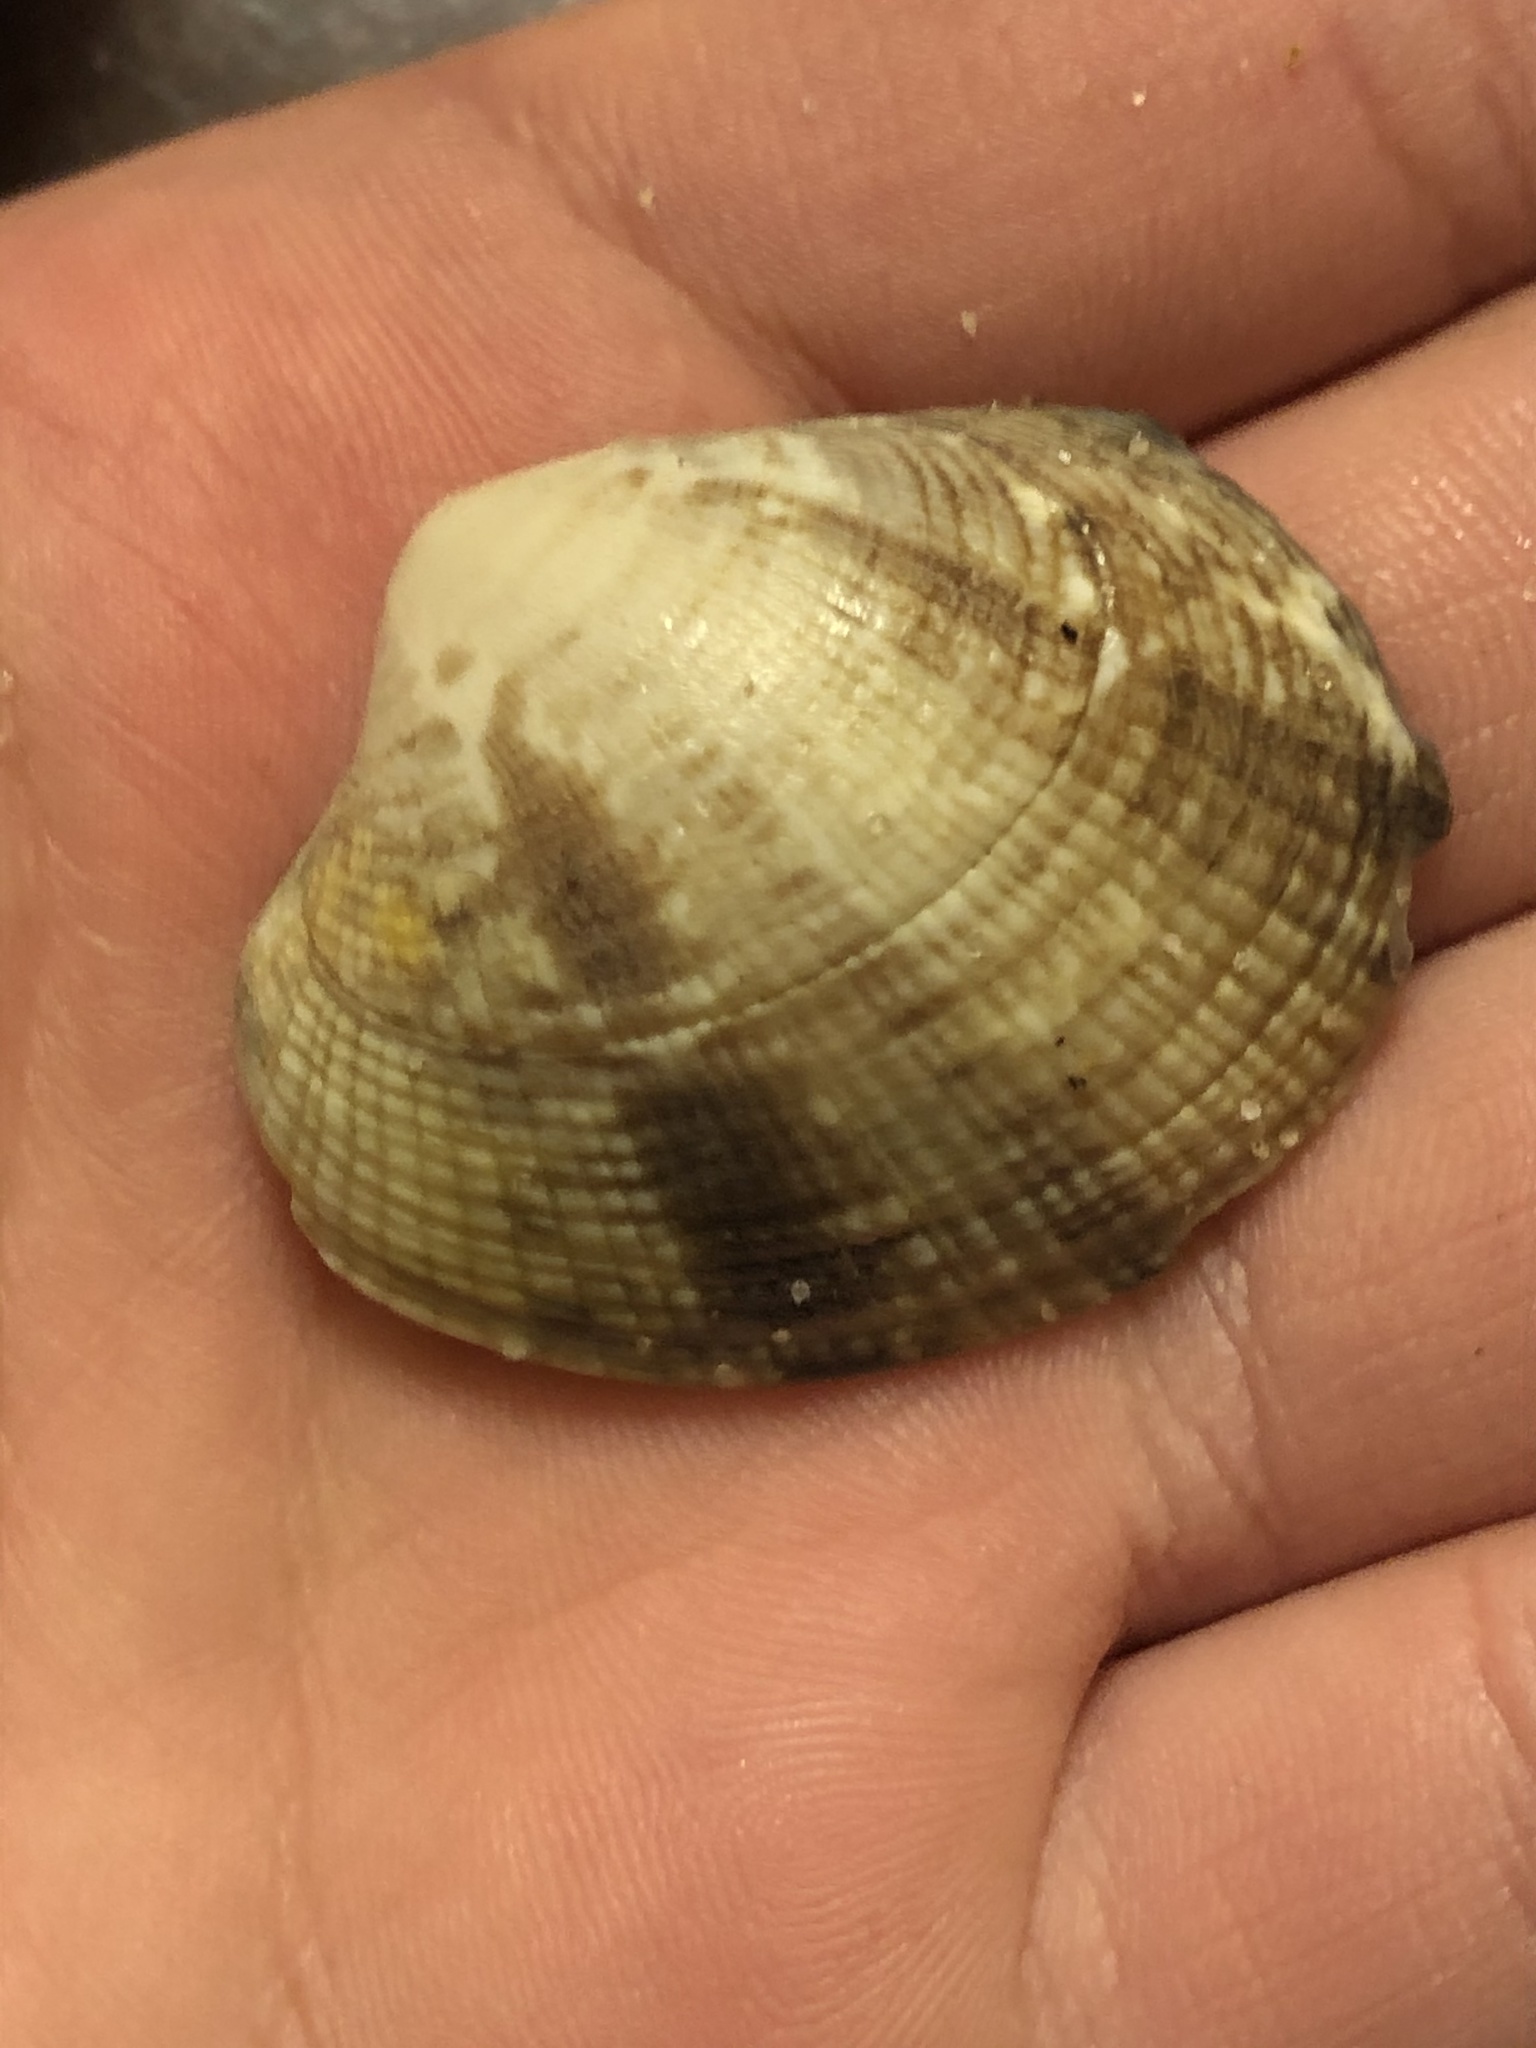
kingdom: Animalia
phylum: Mollusca
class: Bivalvia
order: Venerida
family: Veneridae
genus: Ruditapes
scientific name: Ruditapes philippinarum
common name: Manila clam
